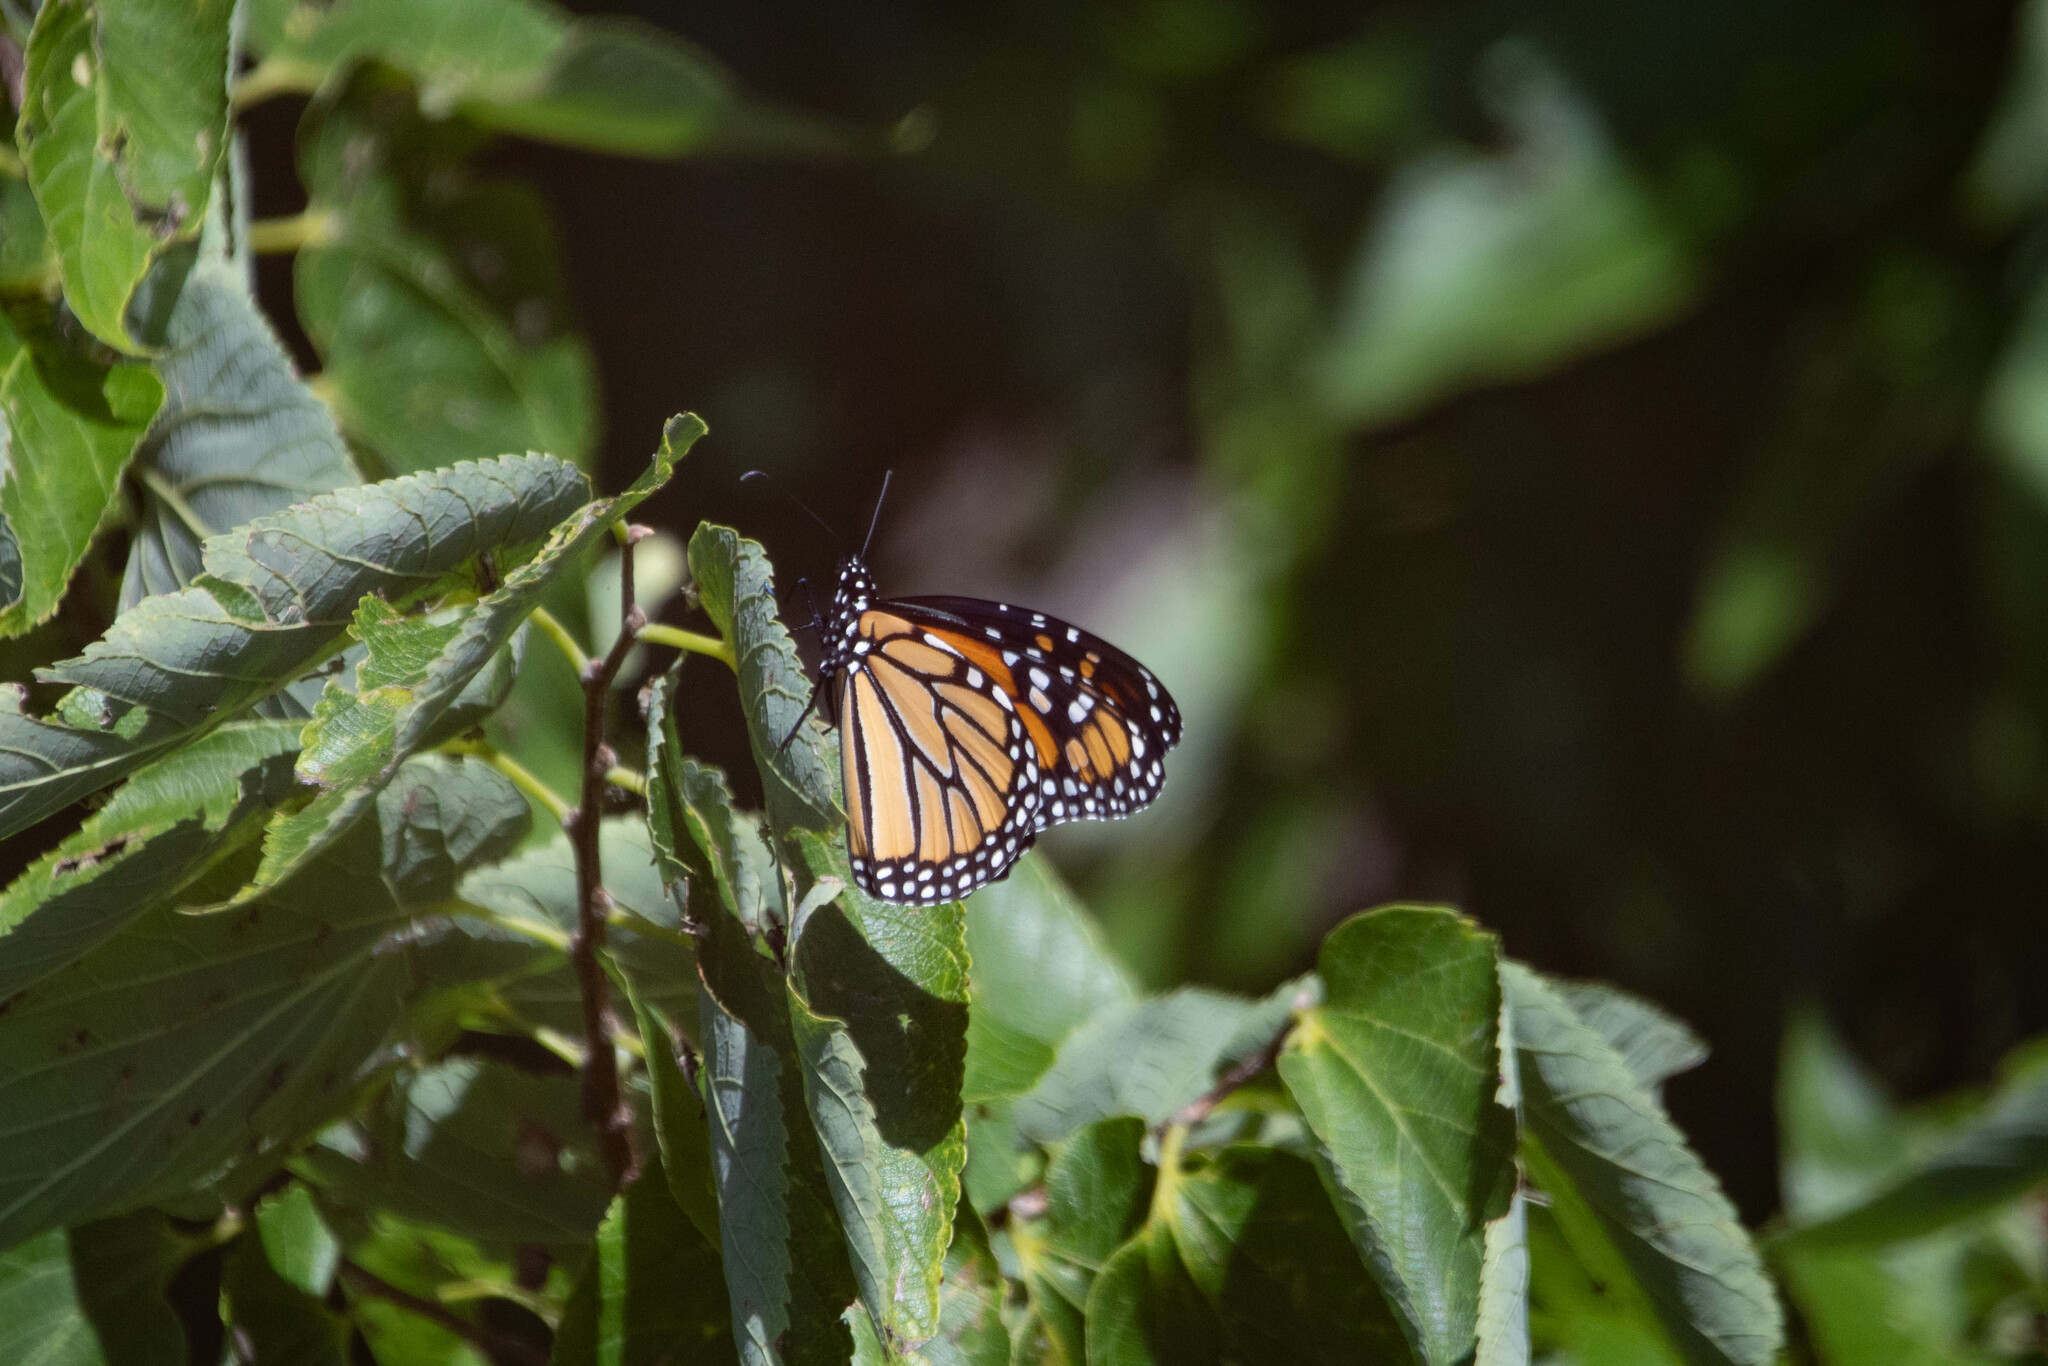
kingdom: Animalia
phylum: Arthropoda
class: Insecta
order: Lepidoptera
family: Nymphalidae
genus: Danaus
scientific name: Danaus plexippus
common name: Monarch
